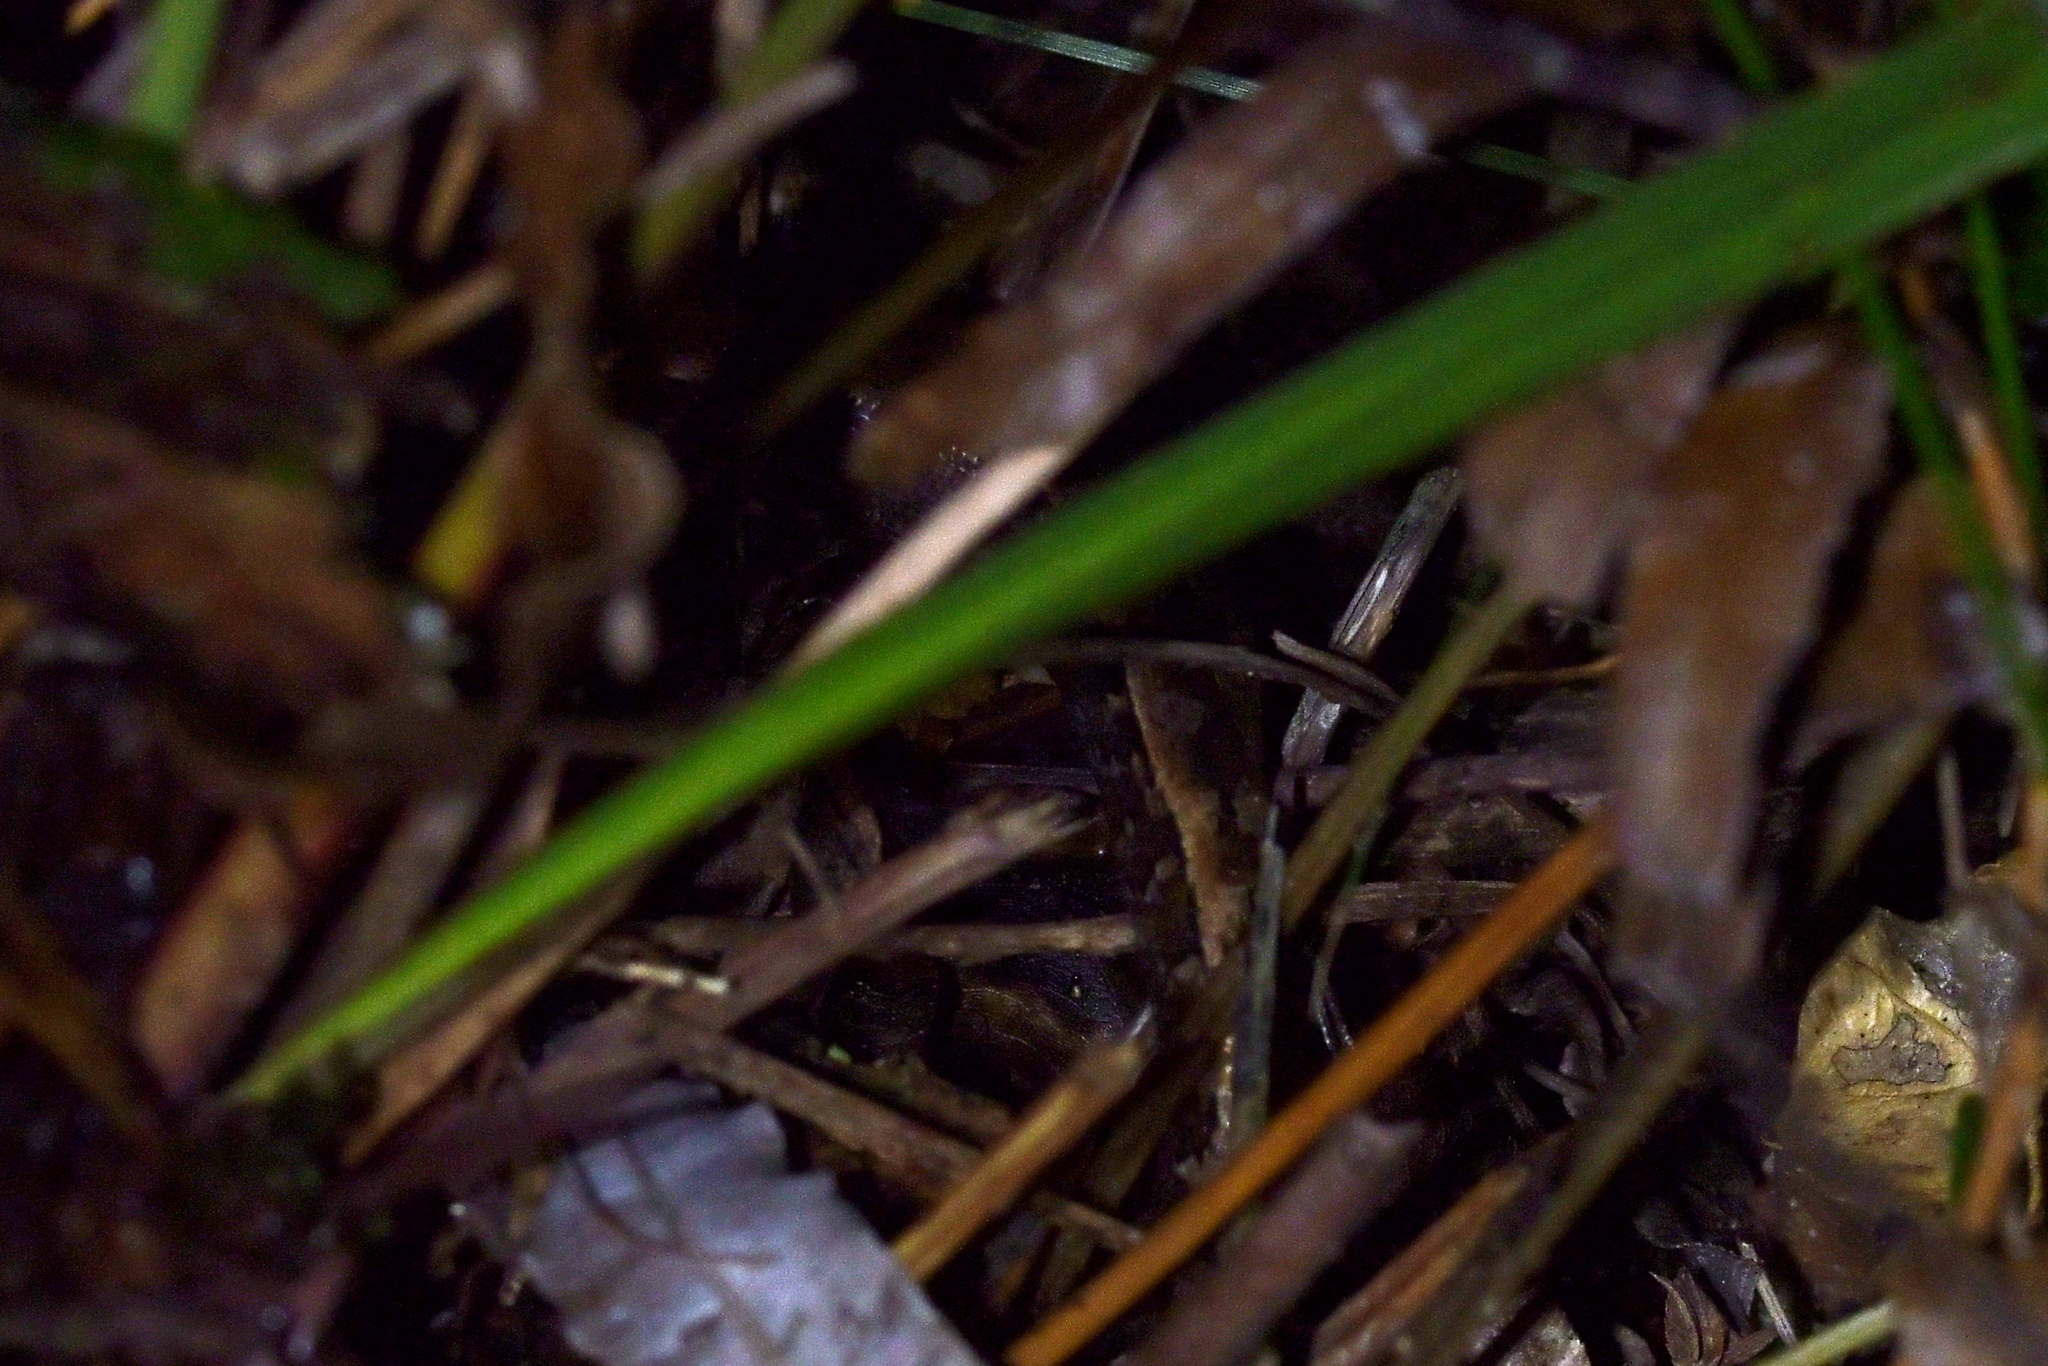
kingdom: Animalia
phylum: Chordata
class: Squamata
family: Scincidae
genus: Oligosoma
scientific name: Oligosoma ornatum
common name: Gray's ornate skink
